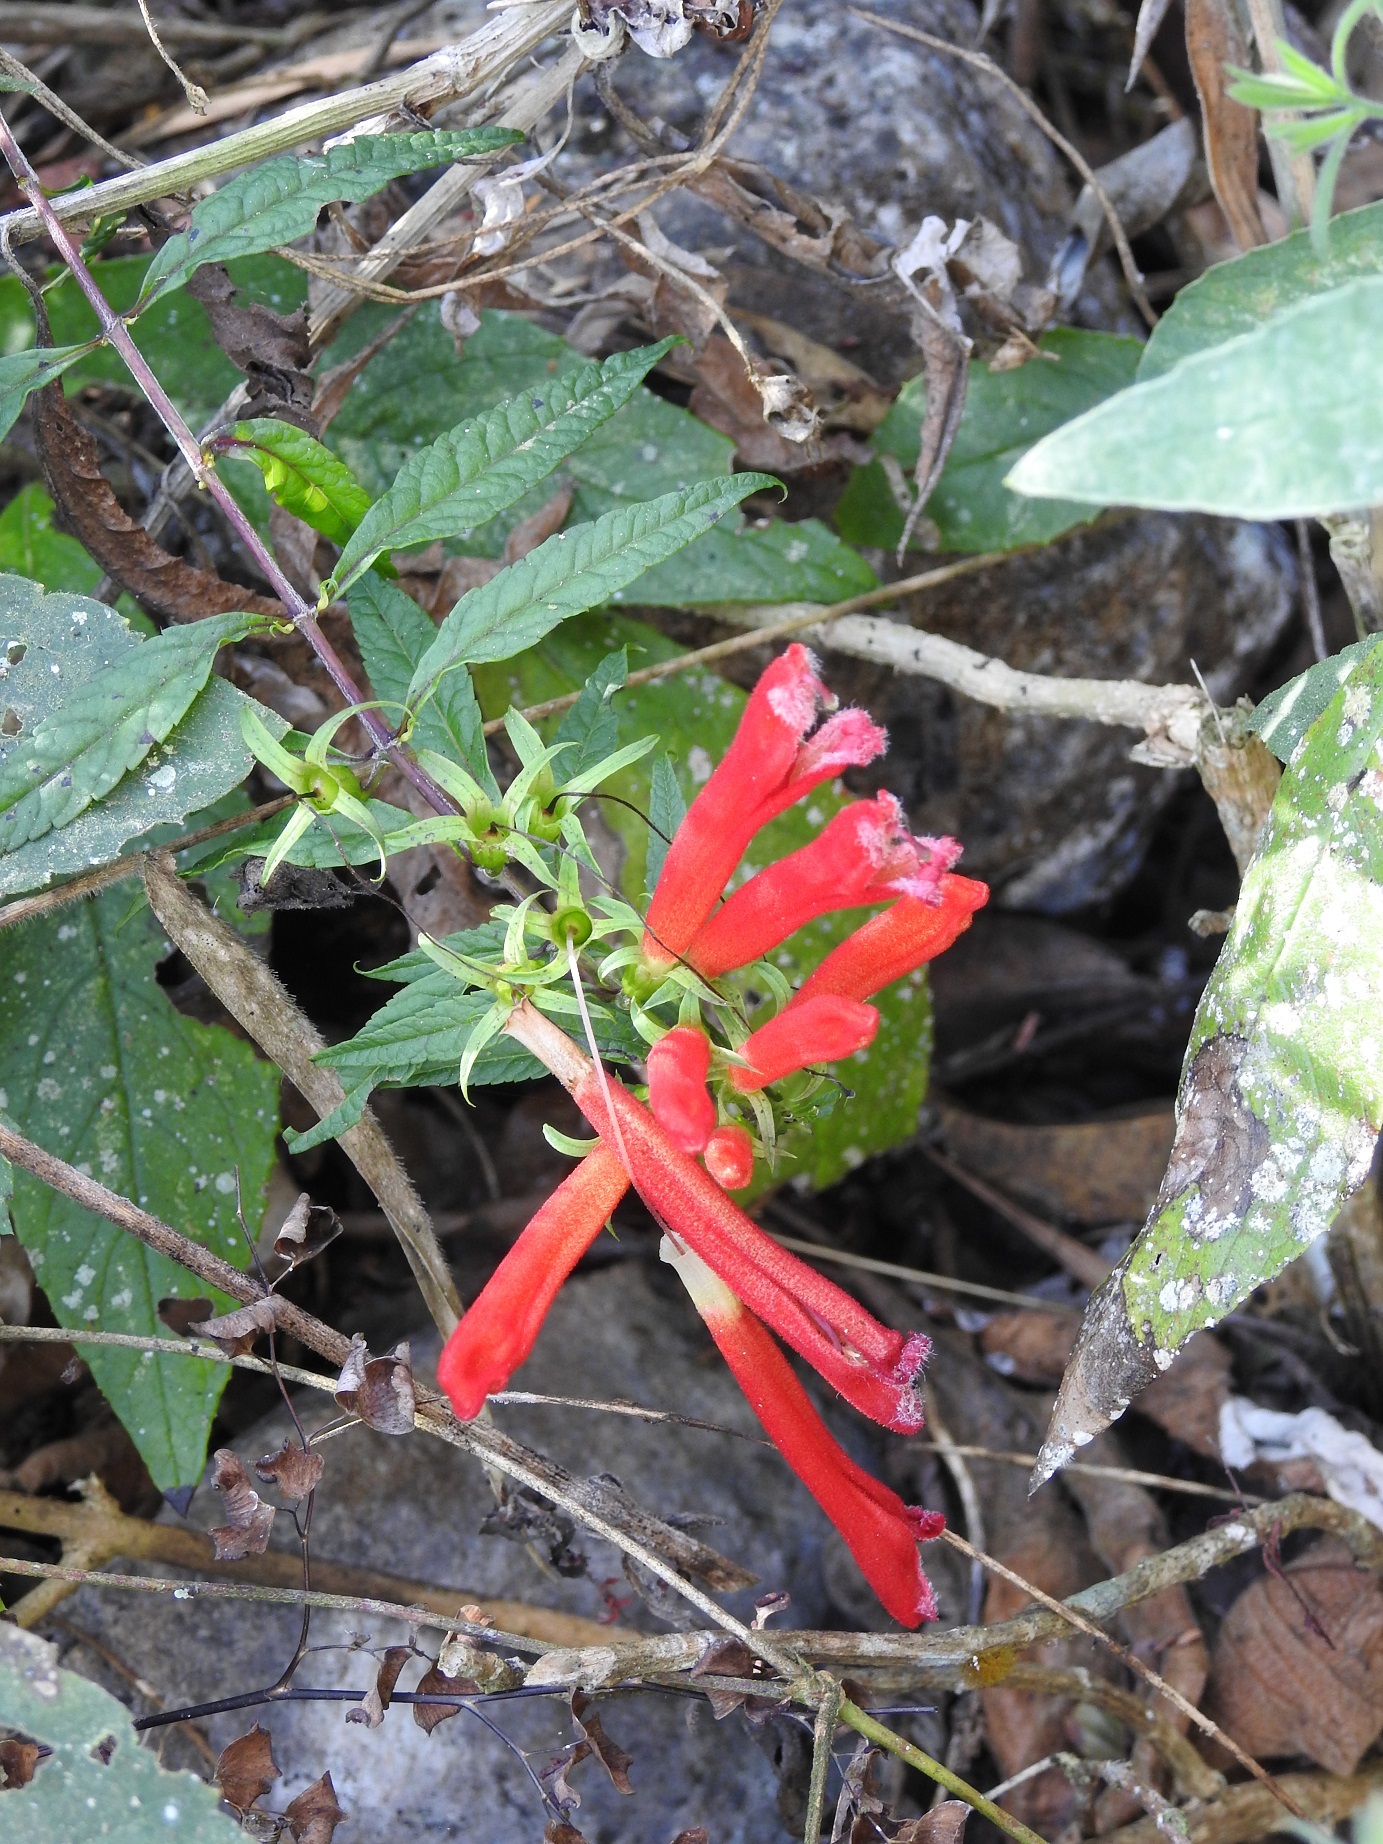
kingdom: Plantae
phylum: Tracheophyta
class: Magnoliopsida
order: Lamiales
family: Orobanchaceae
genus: Lamourouxia
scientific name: Lamourouxia lanceolata
